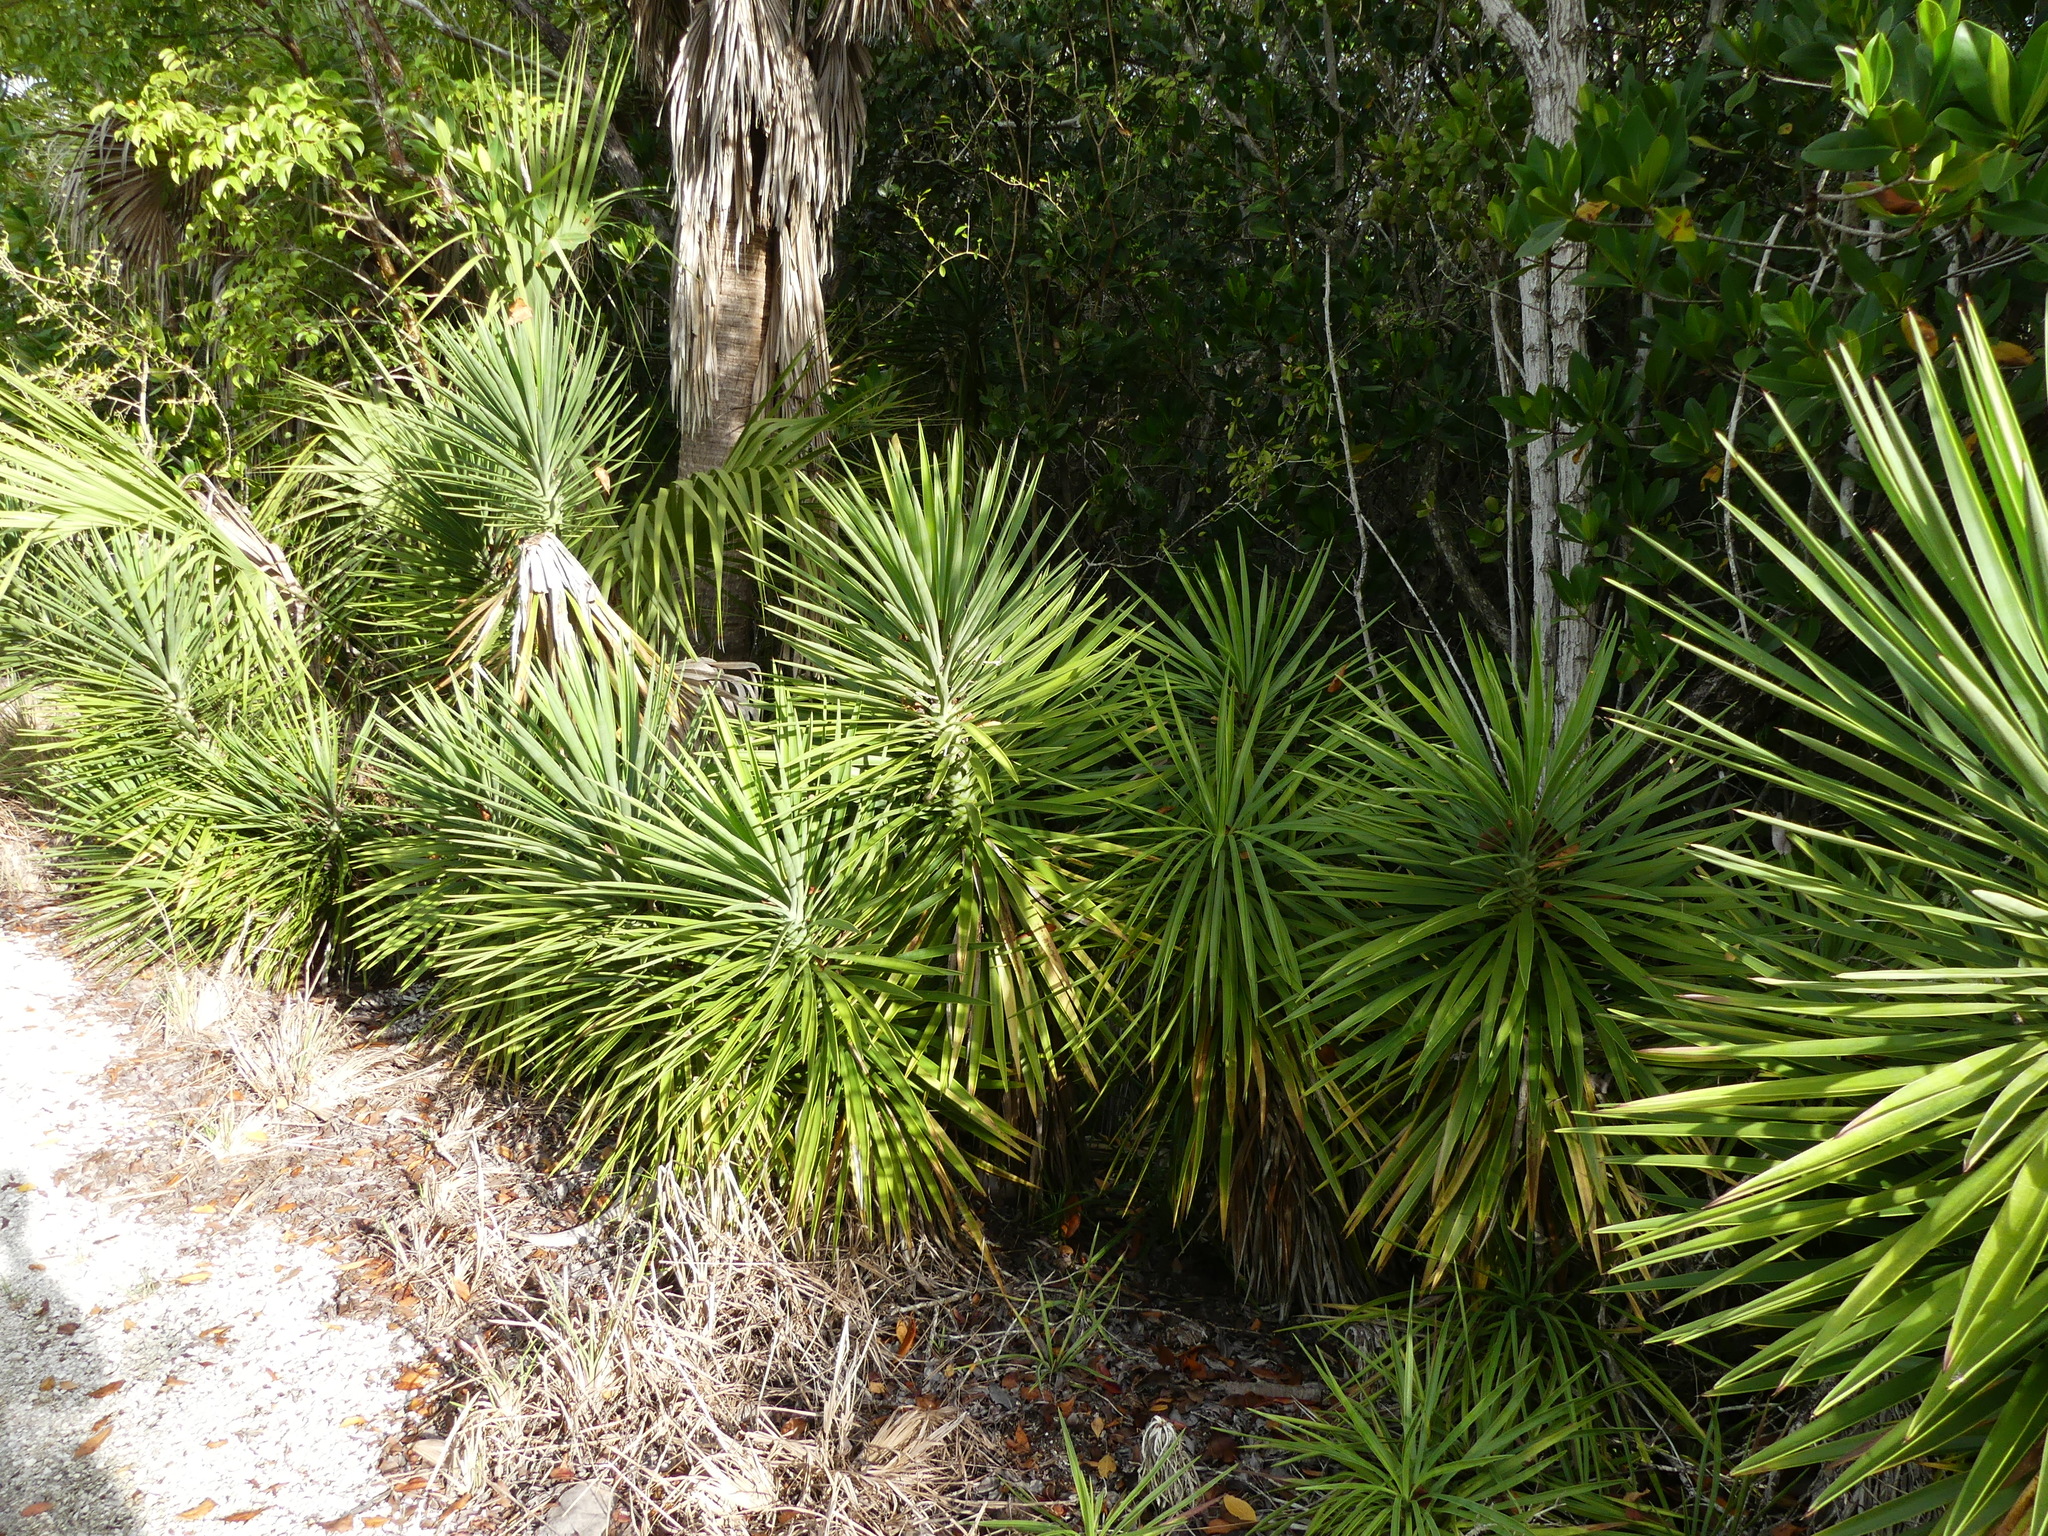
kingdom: Plantae
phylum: Tracheophyta
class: Liliopsida
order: Asparagales
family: Asparagaceae
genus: Yucca
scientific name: Yucca aloifolia
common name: Aloe yucca
